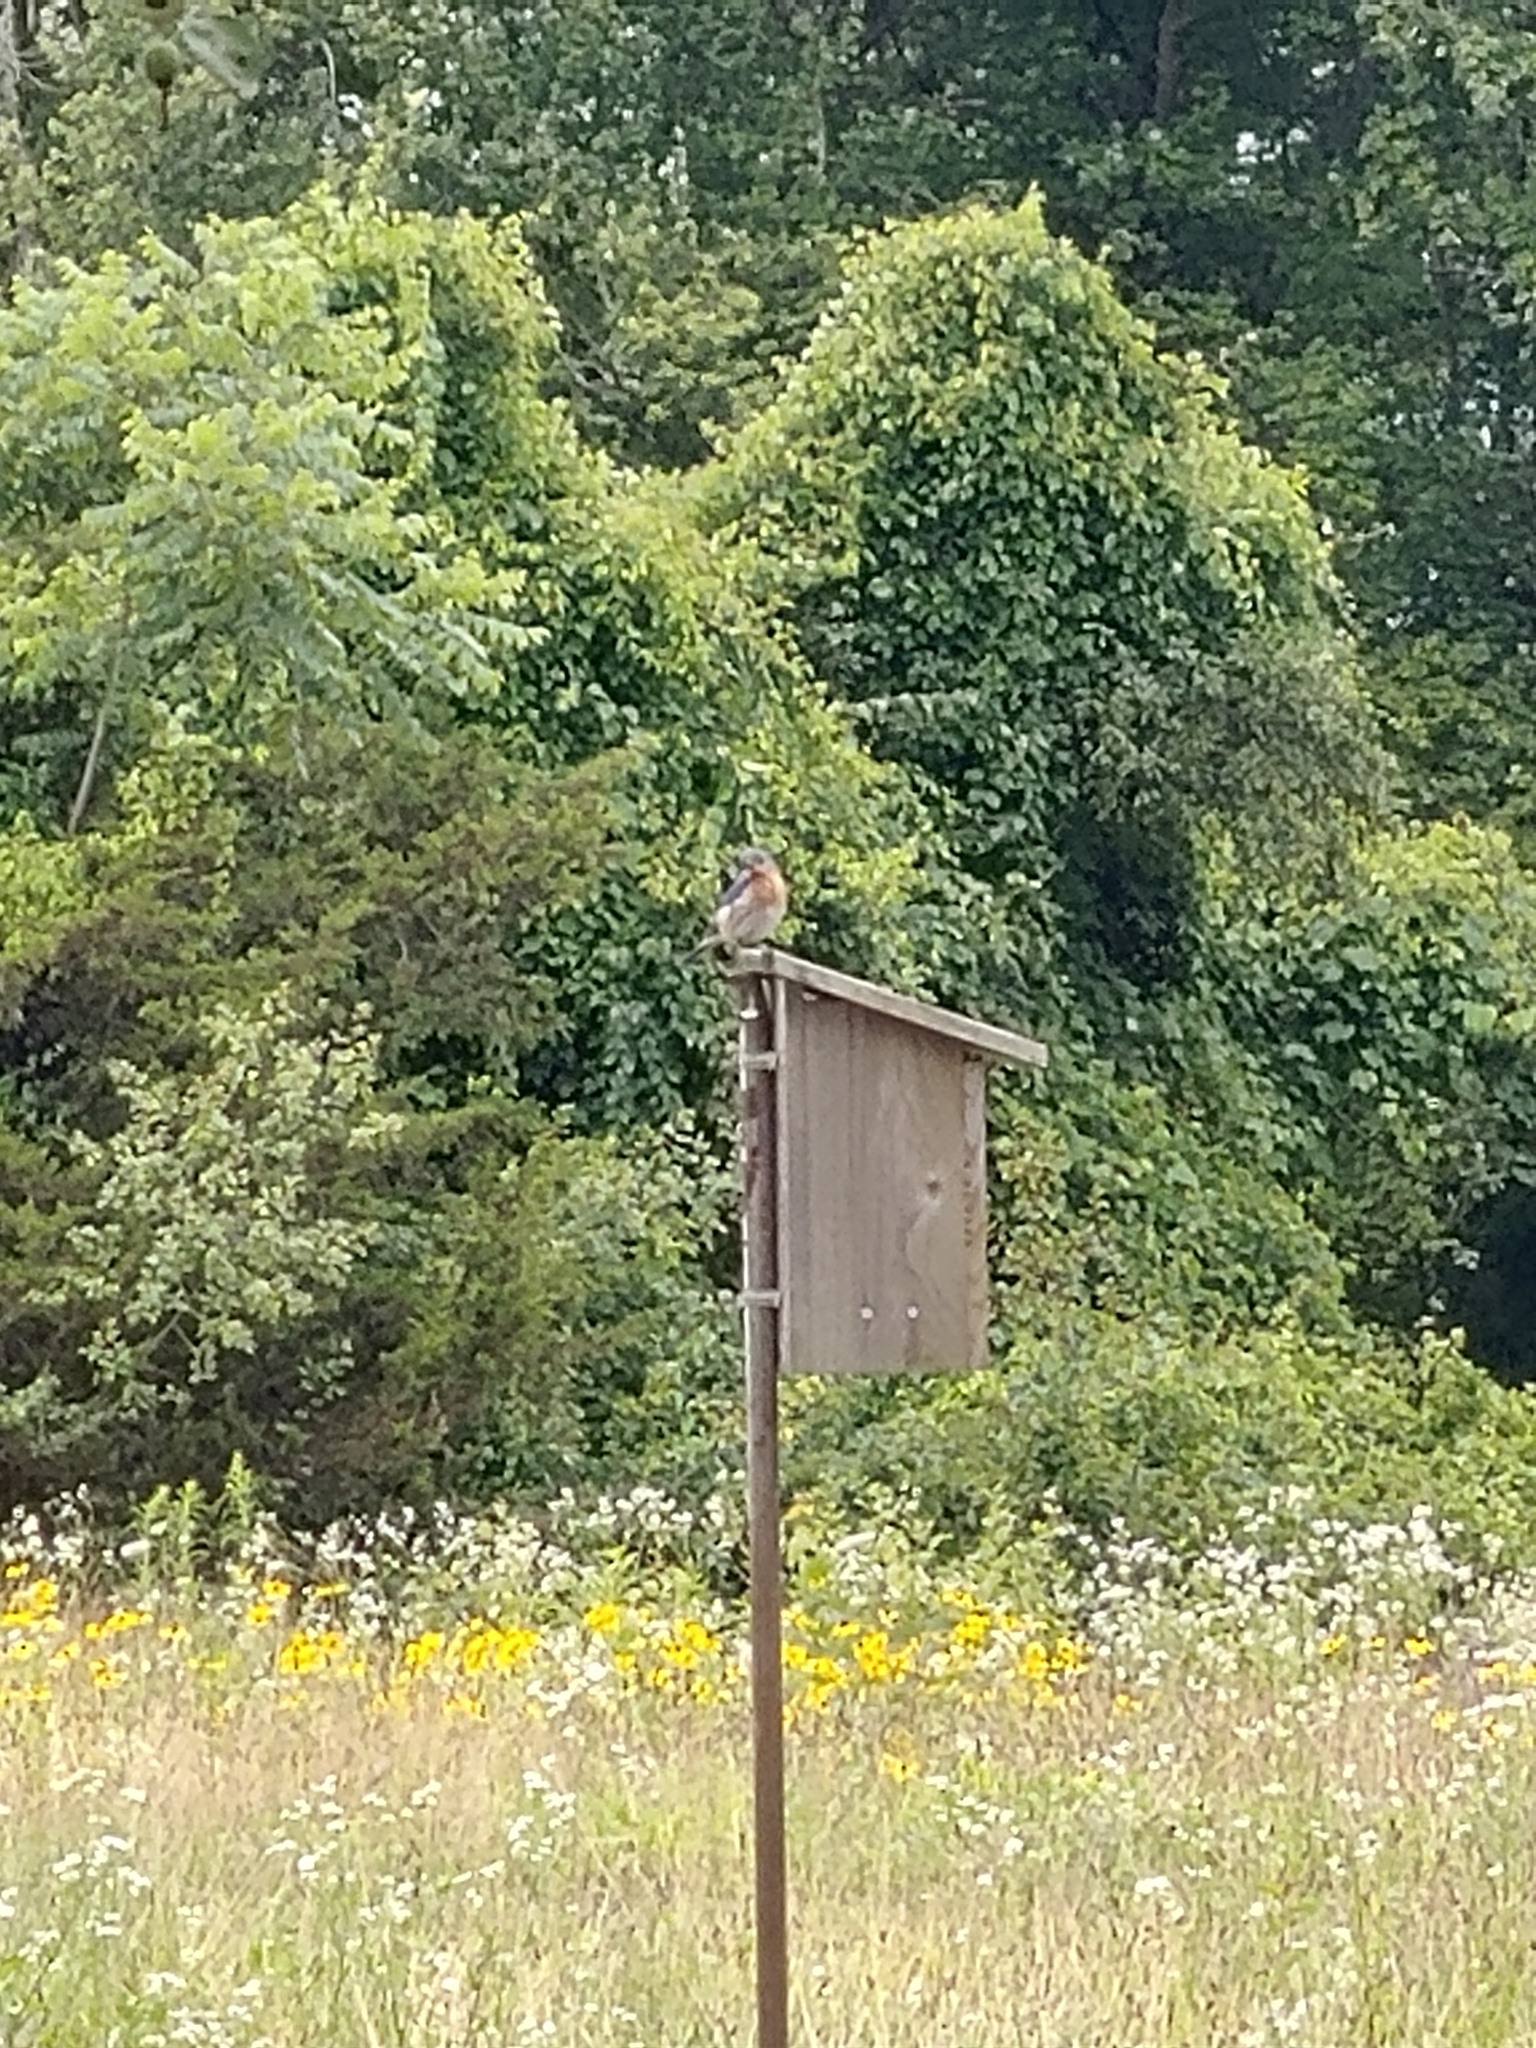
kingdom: Animalia
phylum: Chordata
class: Aves
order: Passeriformes
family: Turdidae
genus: Sialia
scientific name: Sialia sialis
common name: Eastern bluebird
